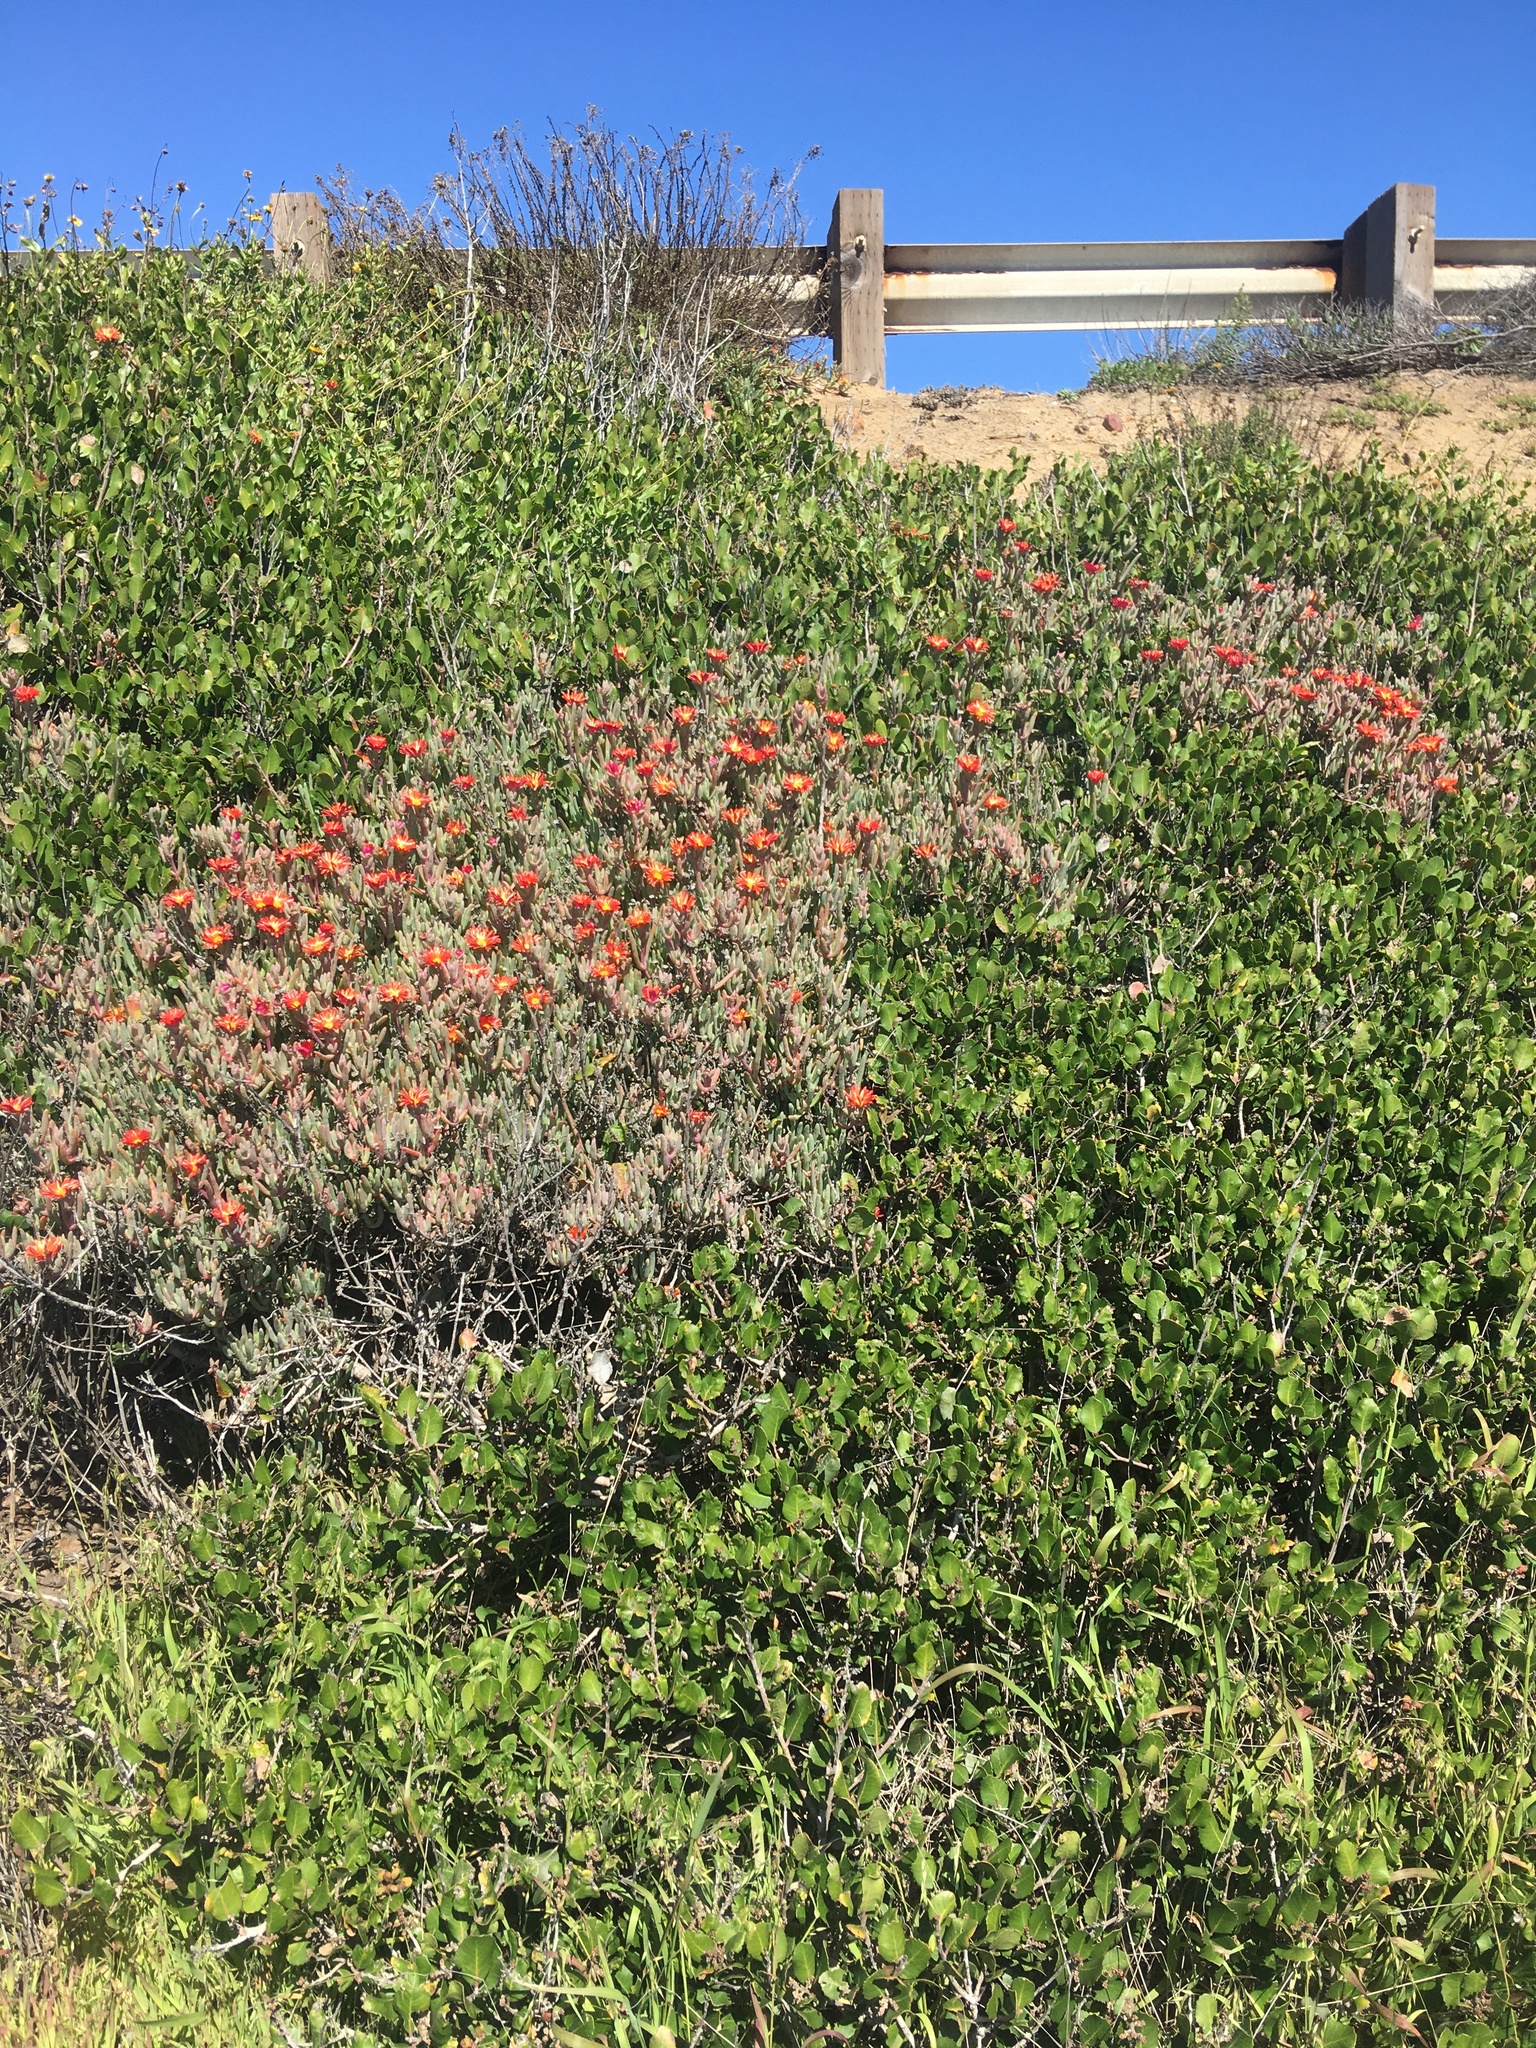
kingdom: Plantae
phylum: Tracheophyta
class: Magnoliopsida
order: Caryophyllales
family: Aizoaceae
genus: Malephora
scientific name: Malephora crocea
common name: Coppery mesemb
